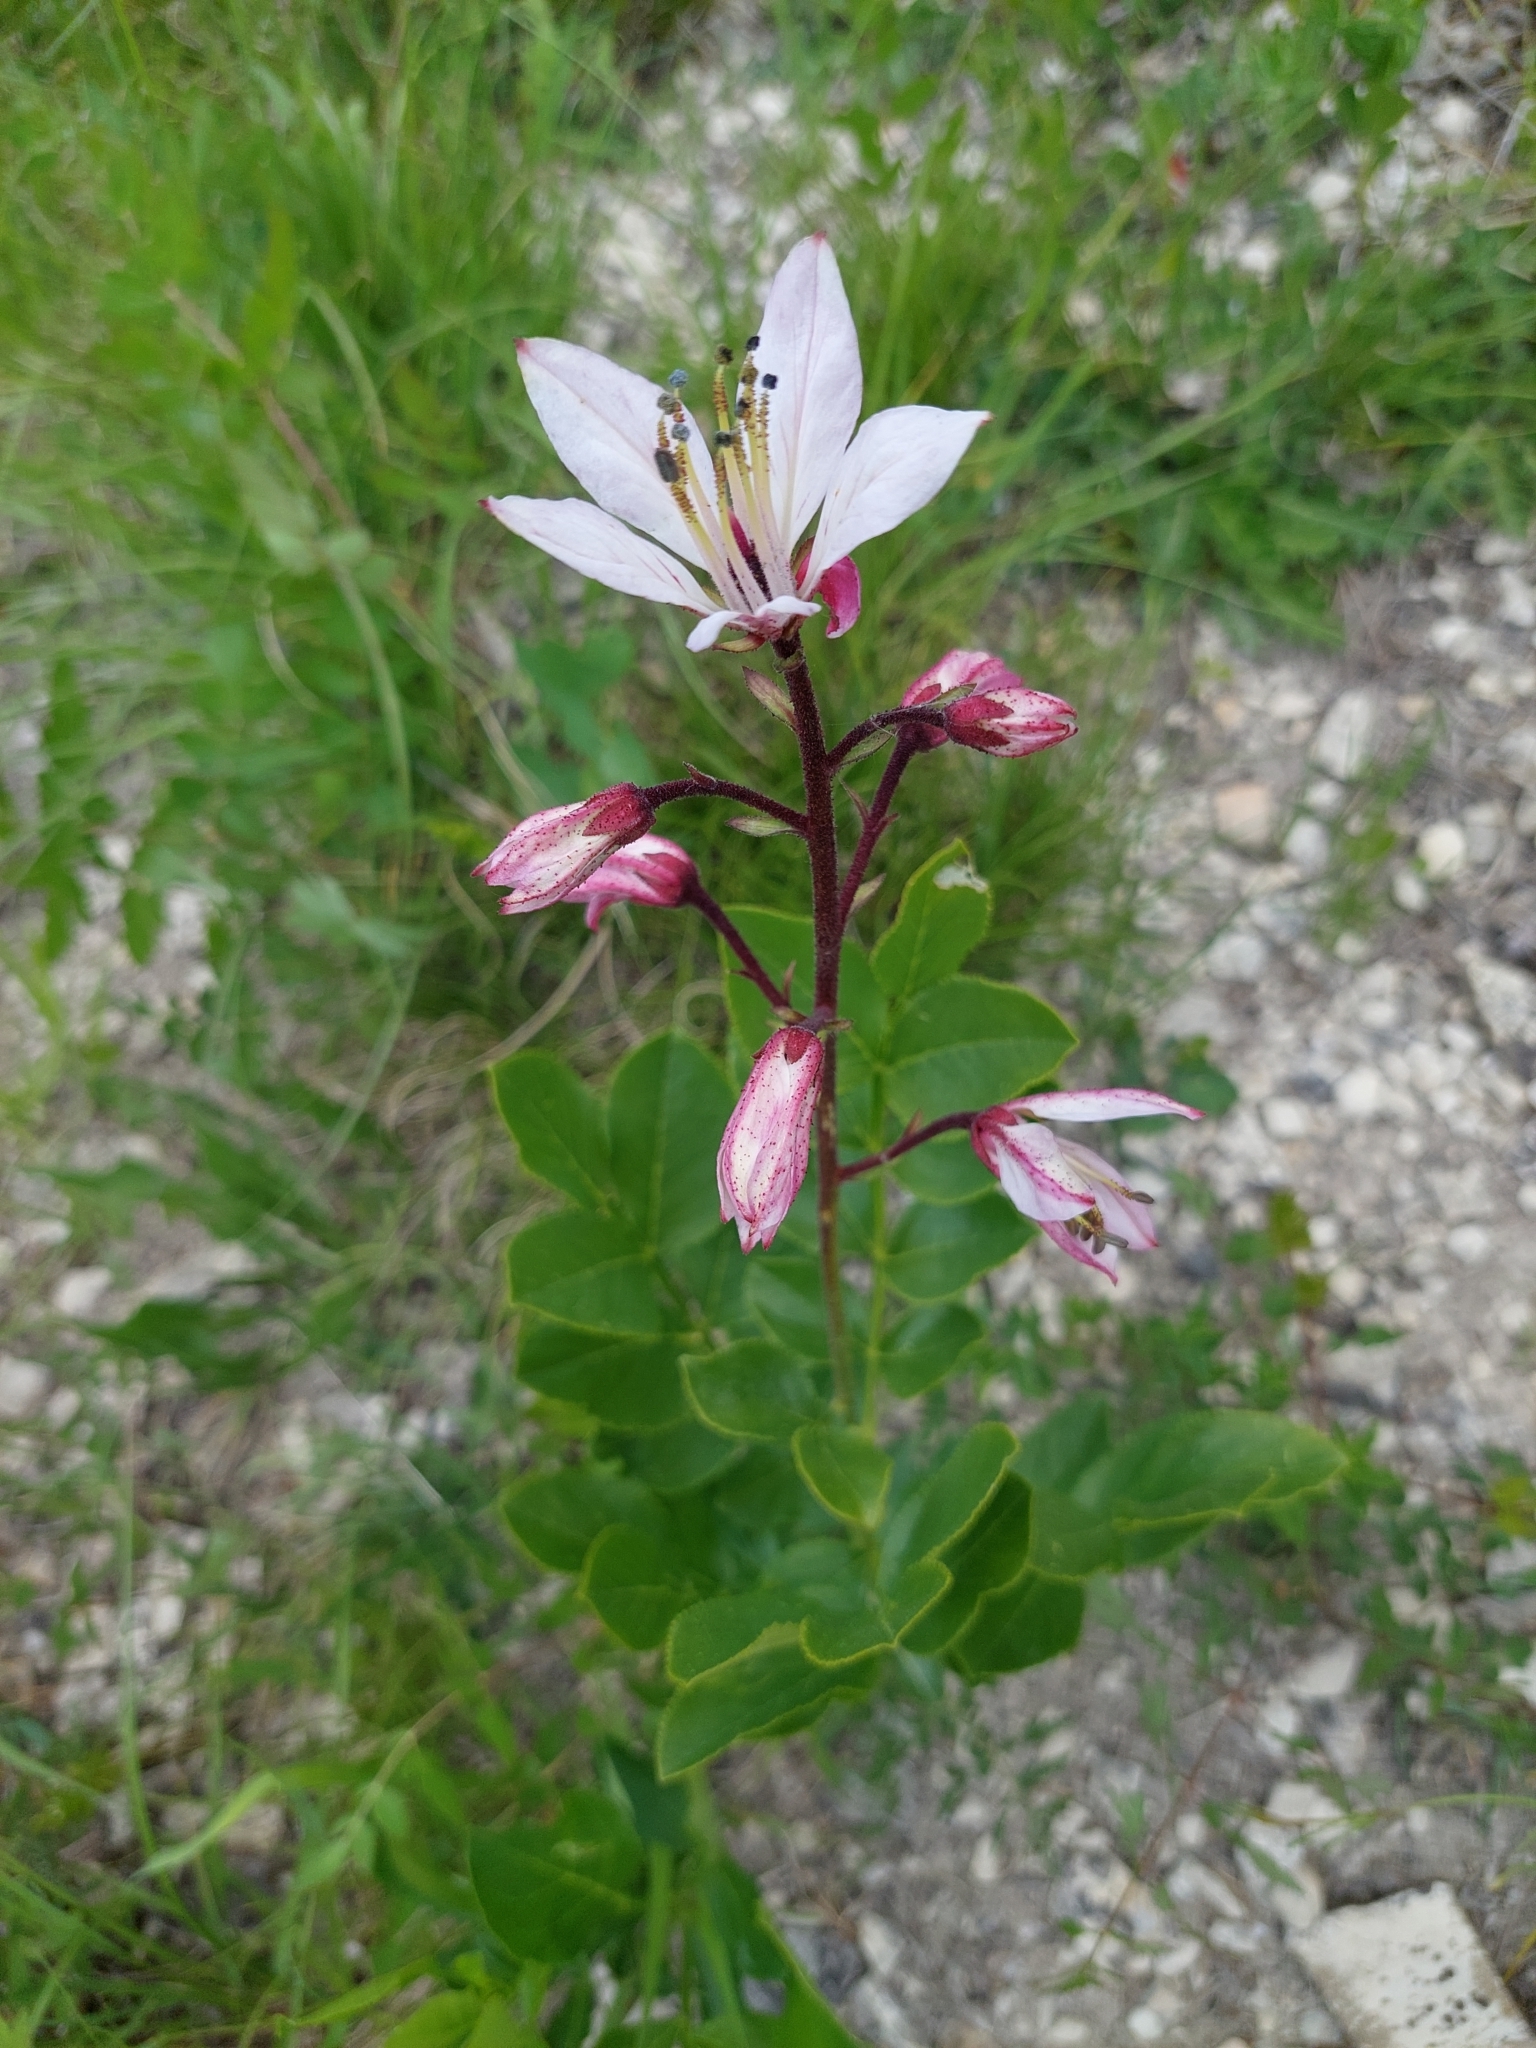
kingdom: Plantae
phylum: Tracheophyta
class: Magnoliopsida
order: Sapindales
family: Rutaceae
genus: Dictamnus
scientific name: Dictamnus albus
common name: Gasplant
